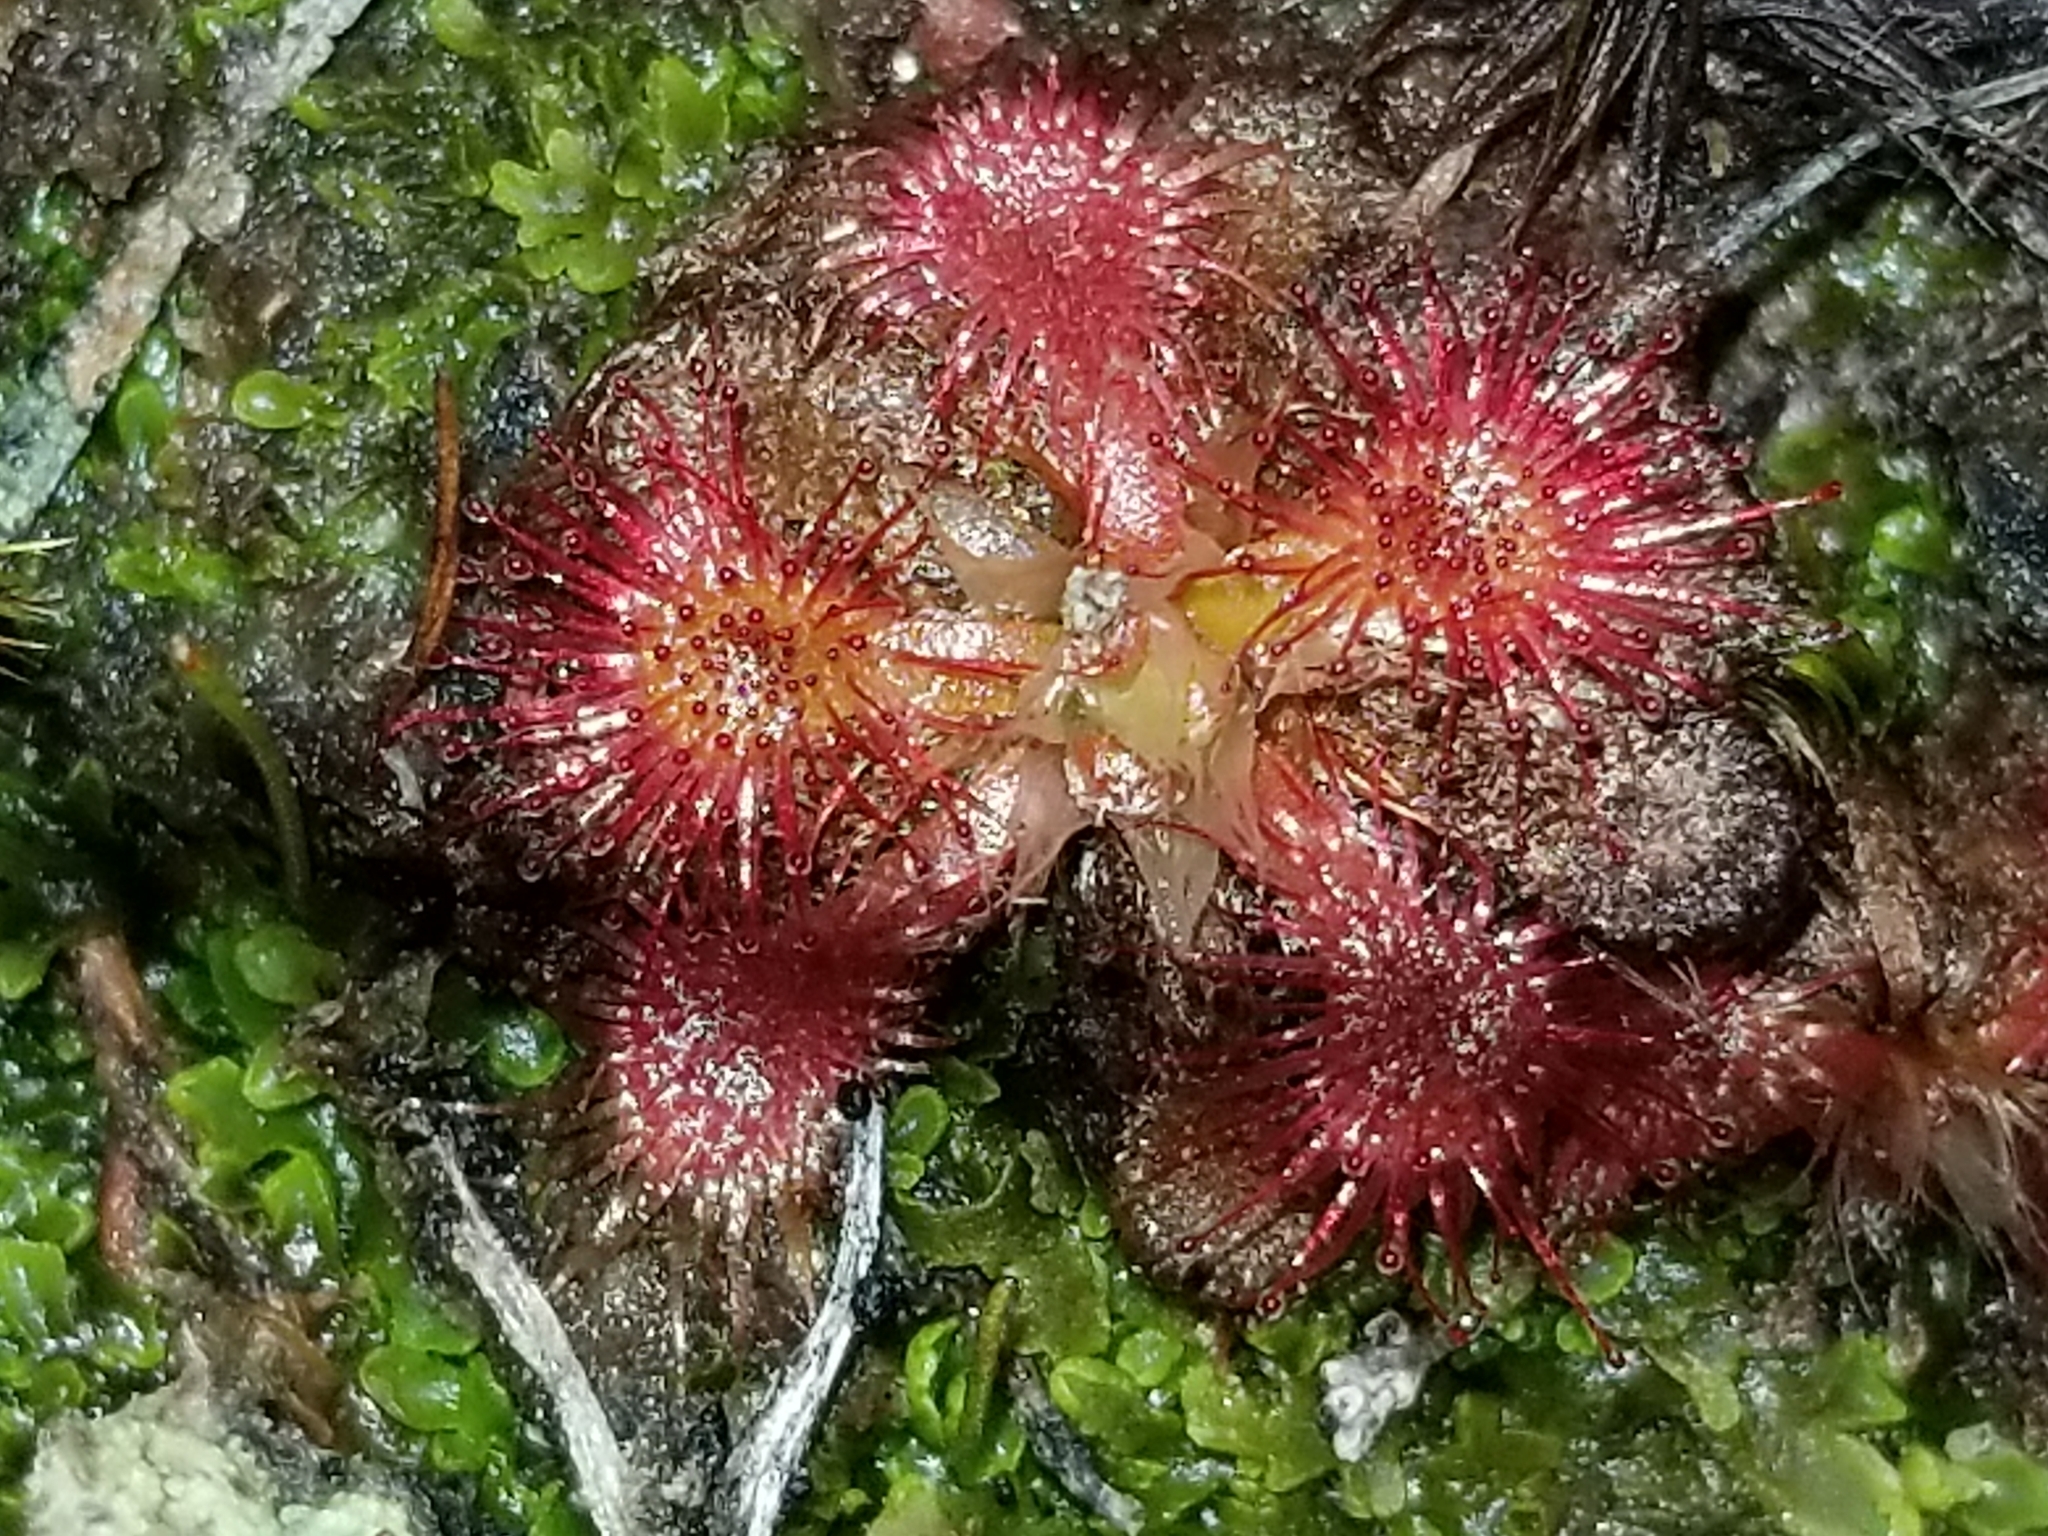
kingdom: Plantae
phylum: Tracheophyta
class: Magnoliopsida
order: Caryophyllales
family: Droseraceae
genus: Drosera
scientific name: Drosera spatulata
